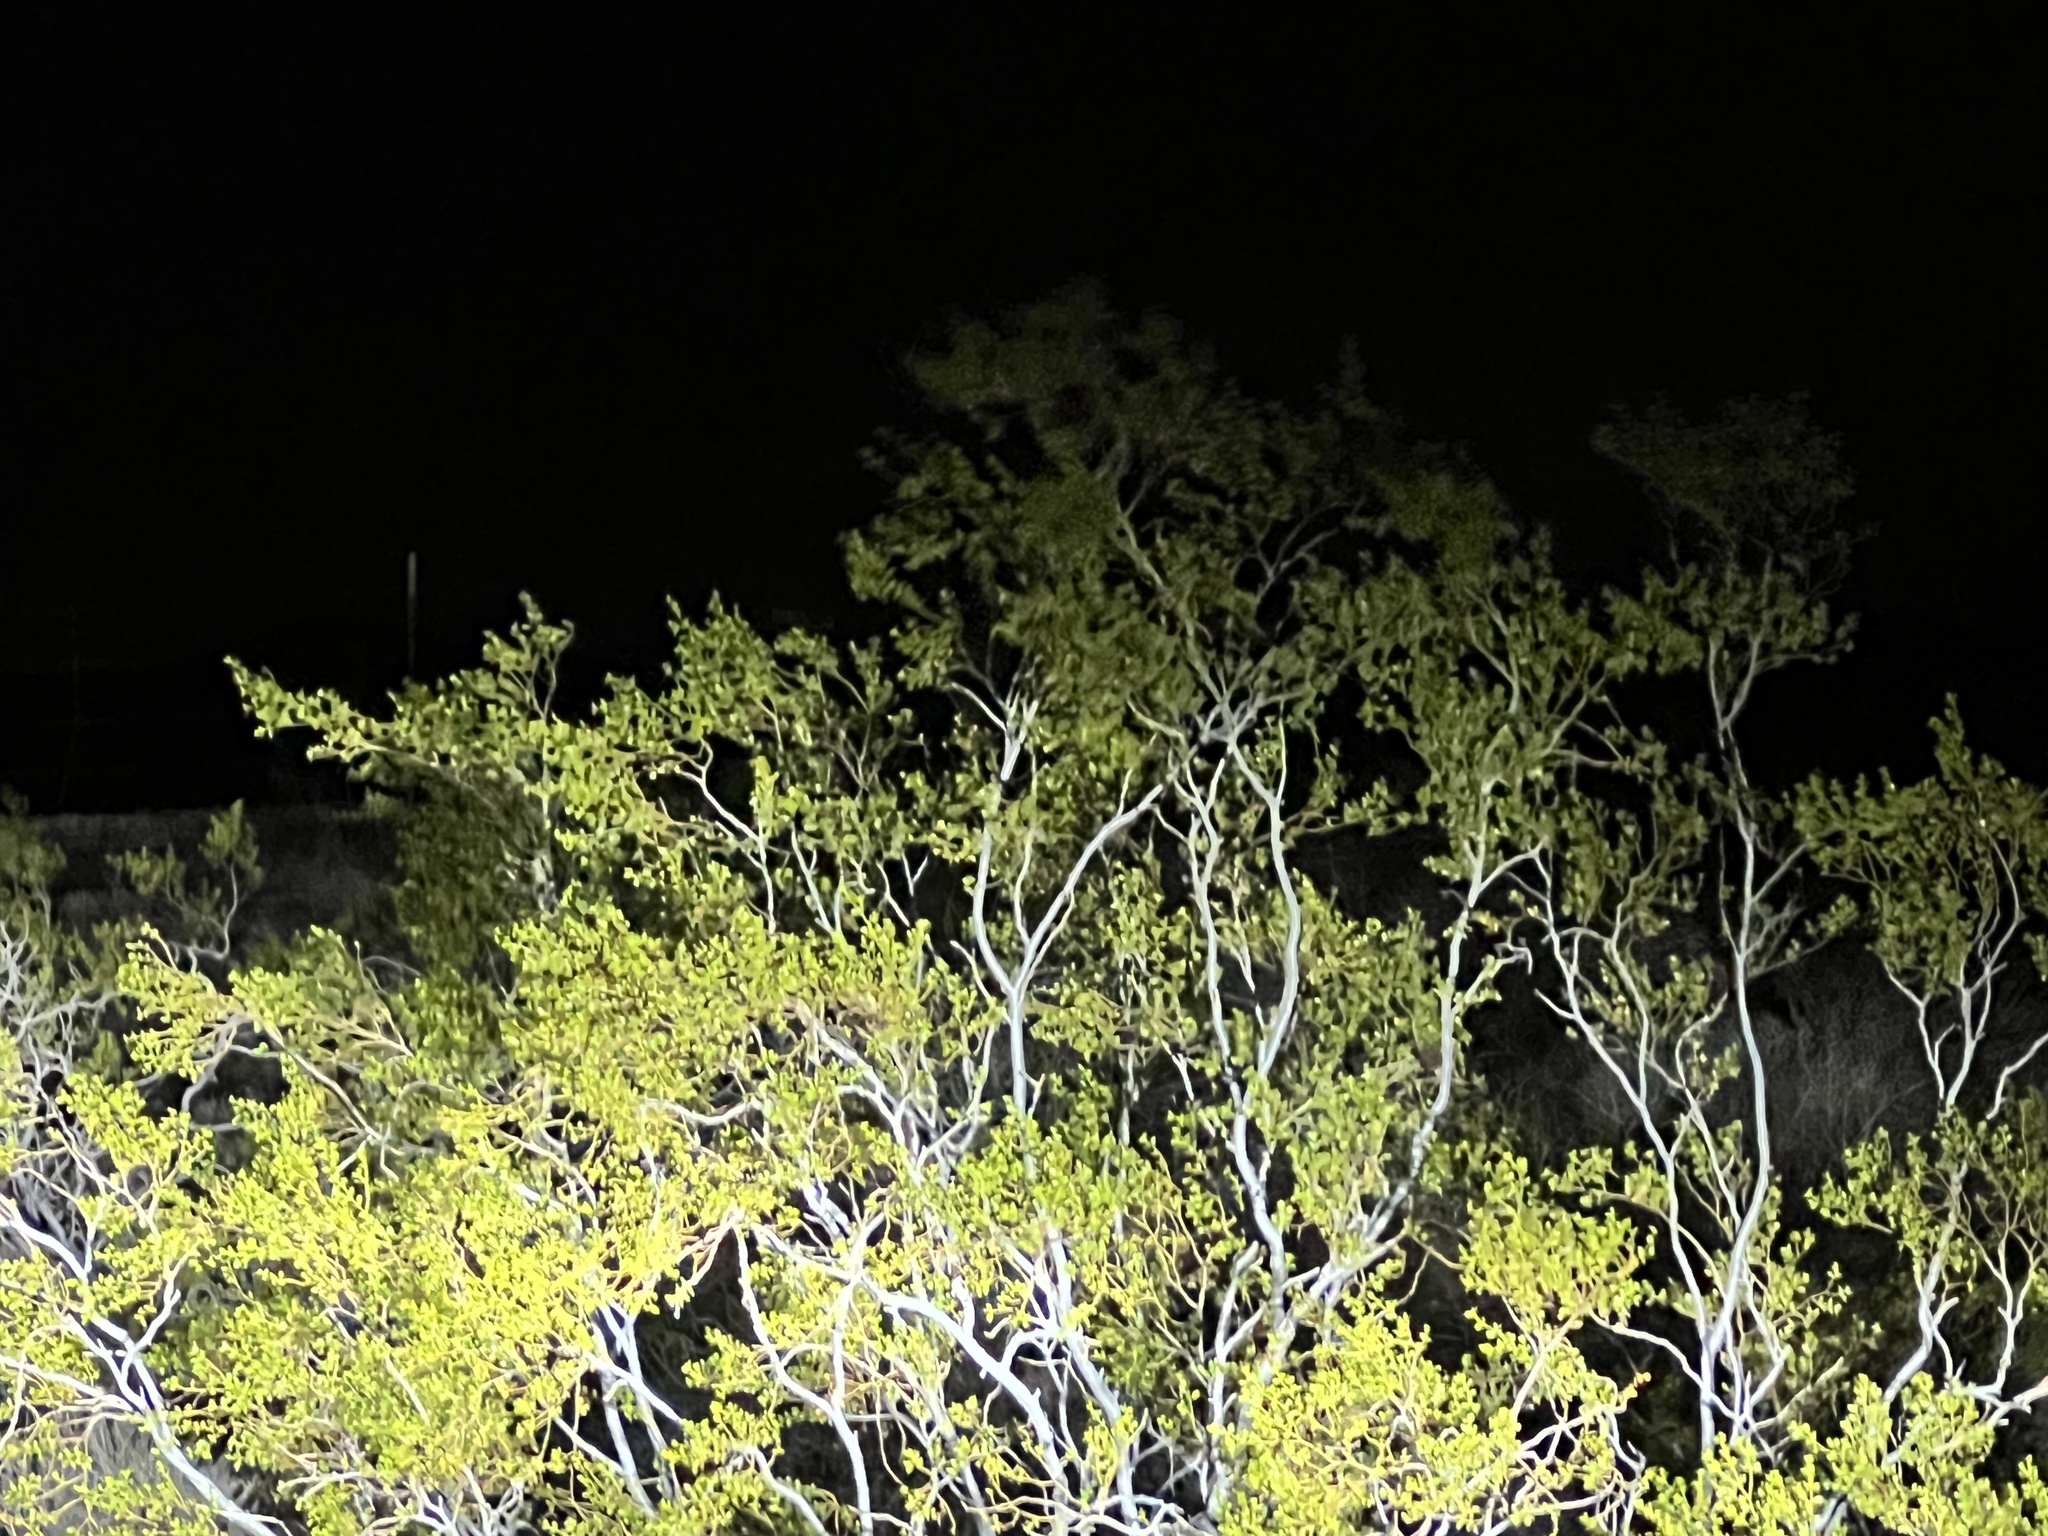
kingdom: Plantae
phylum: Tracheophyta
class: Magnoliopsida
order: Zygophyllales
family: Zygophyllaceae
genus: Larrea
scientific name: Larrea tridentata
